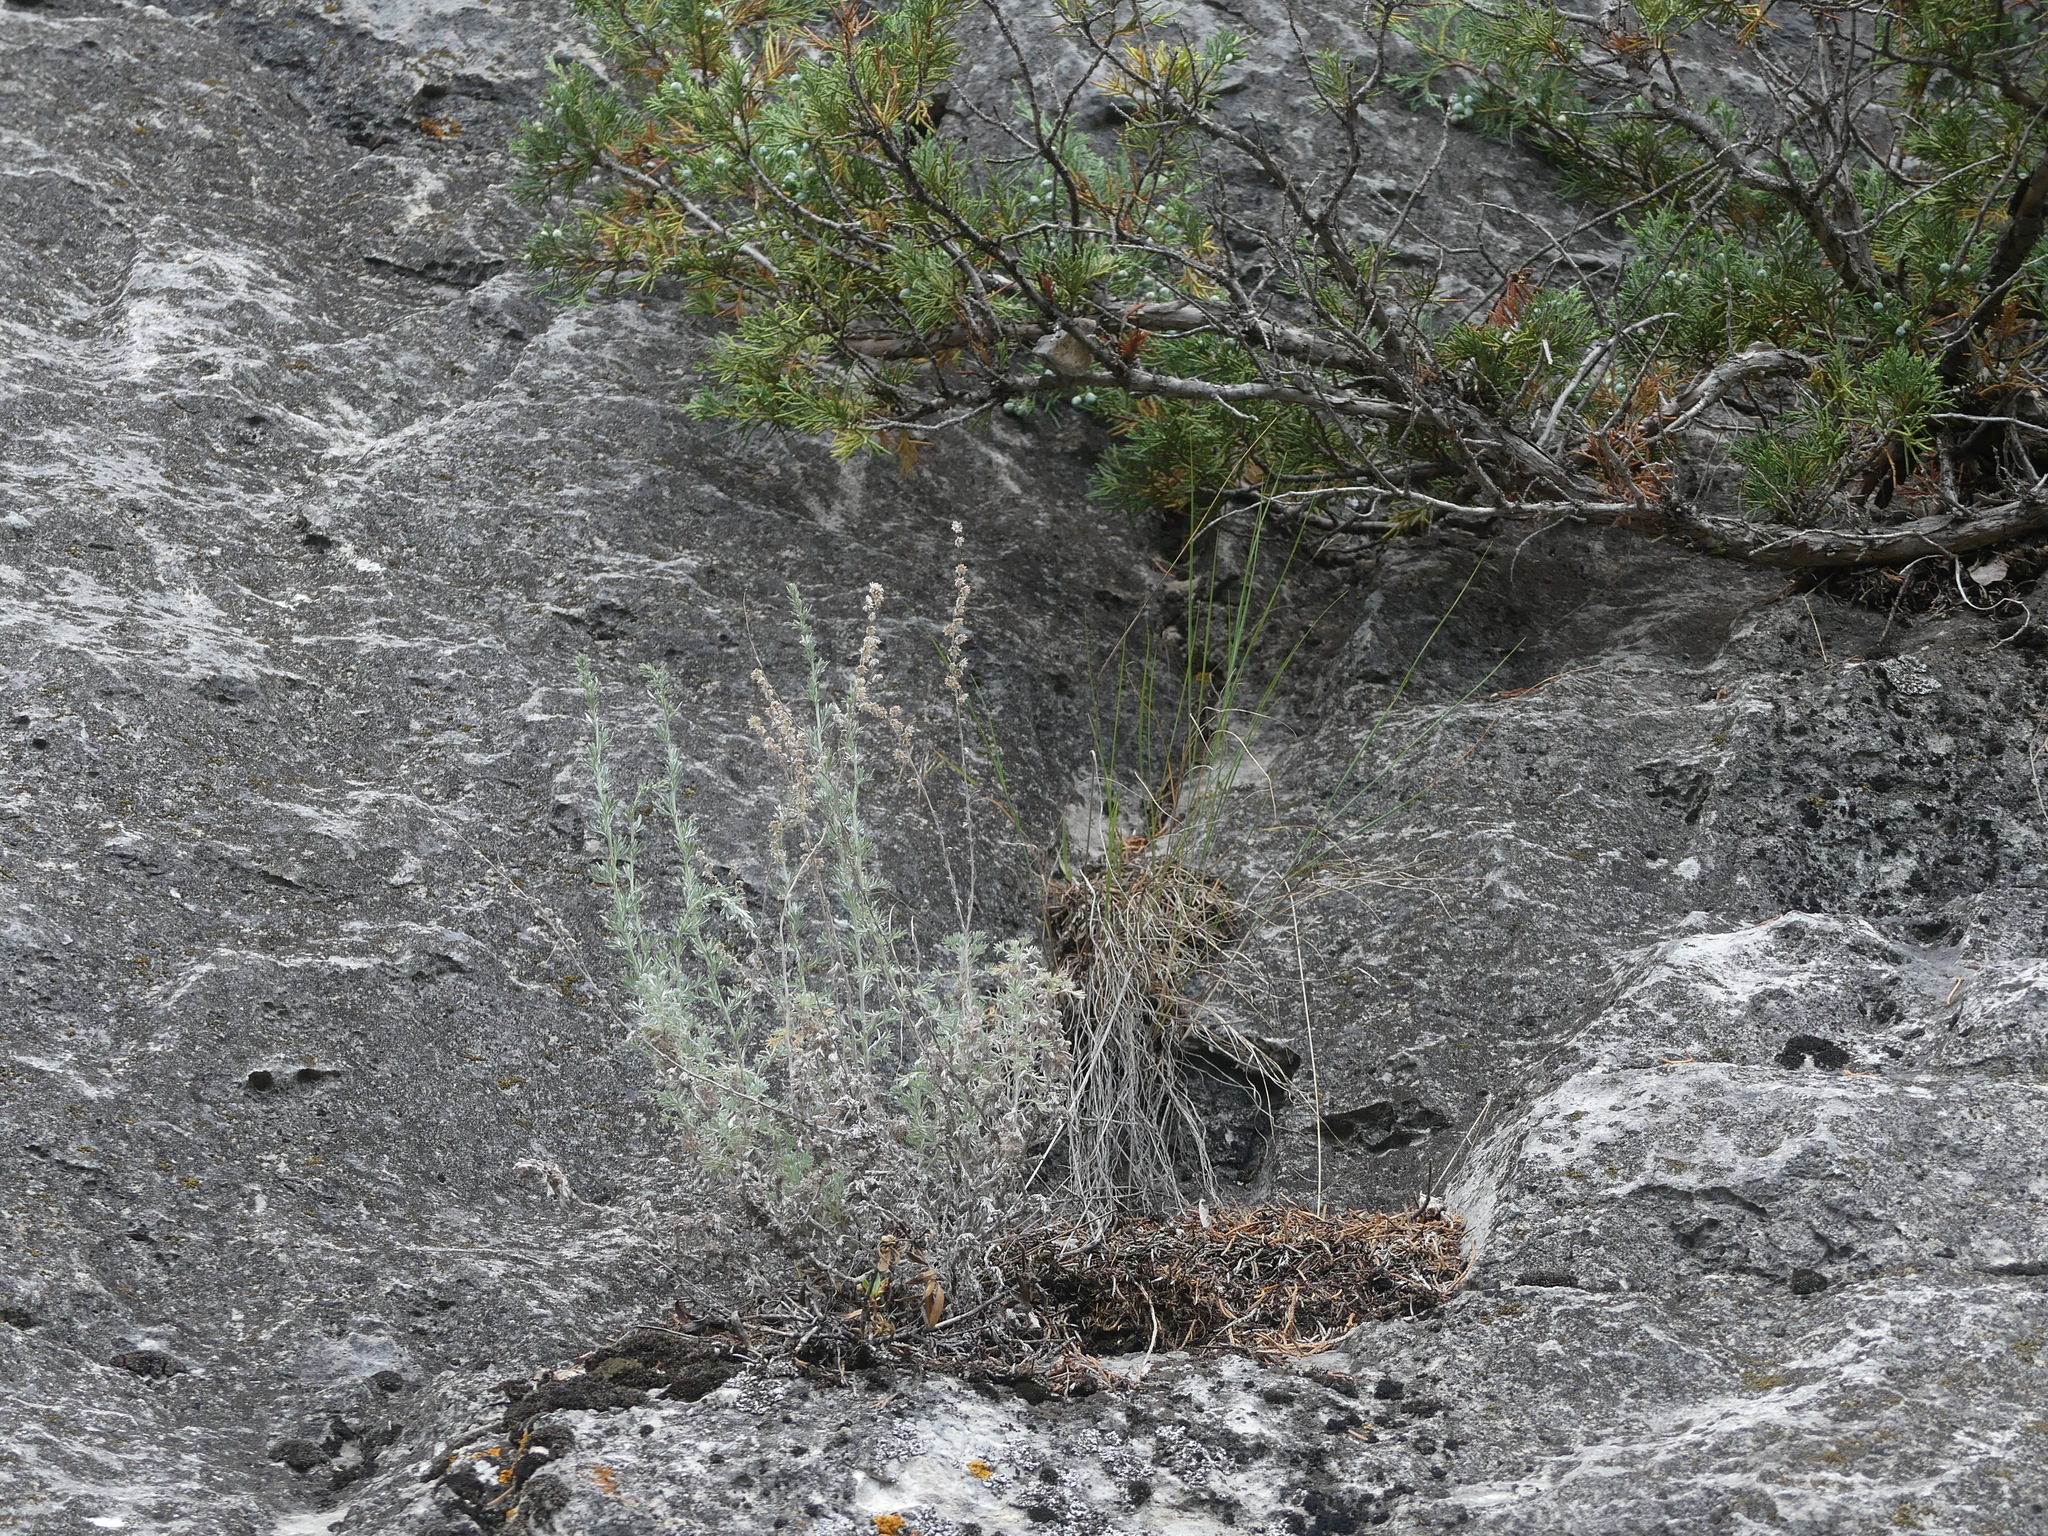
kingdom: Plantae
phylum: Tracheophyta
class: Magnoliopsida
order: Asterales
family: Asteraceae
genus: Artemisia
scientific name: Artemisia frigida
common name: Prairie sagewort
